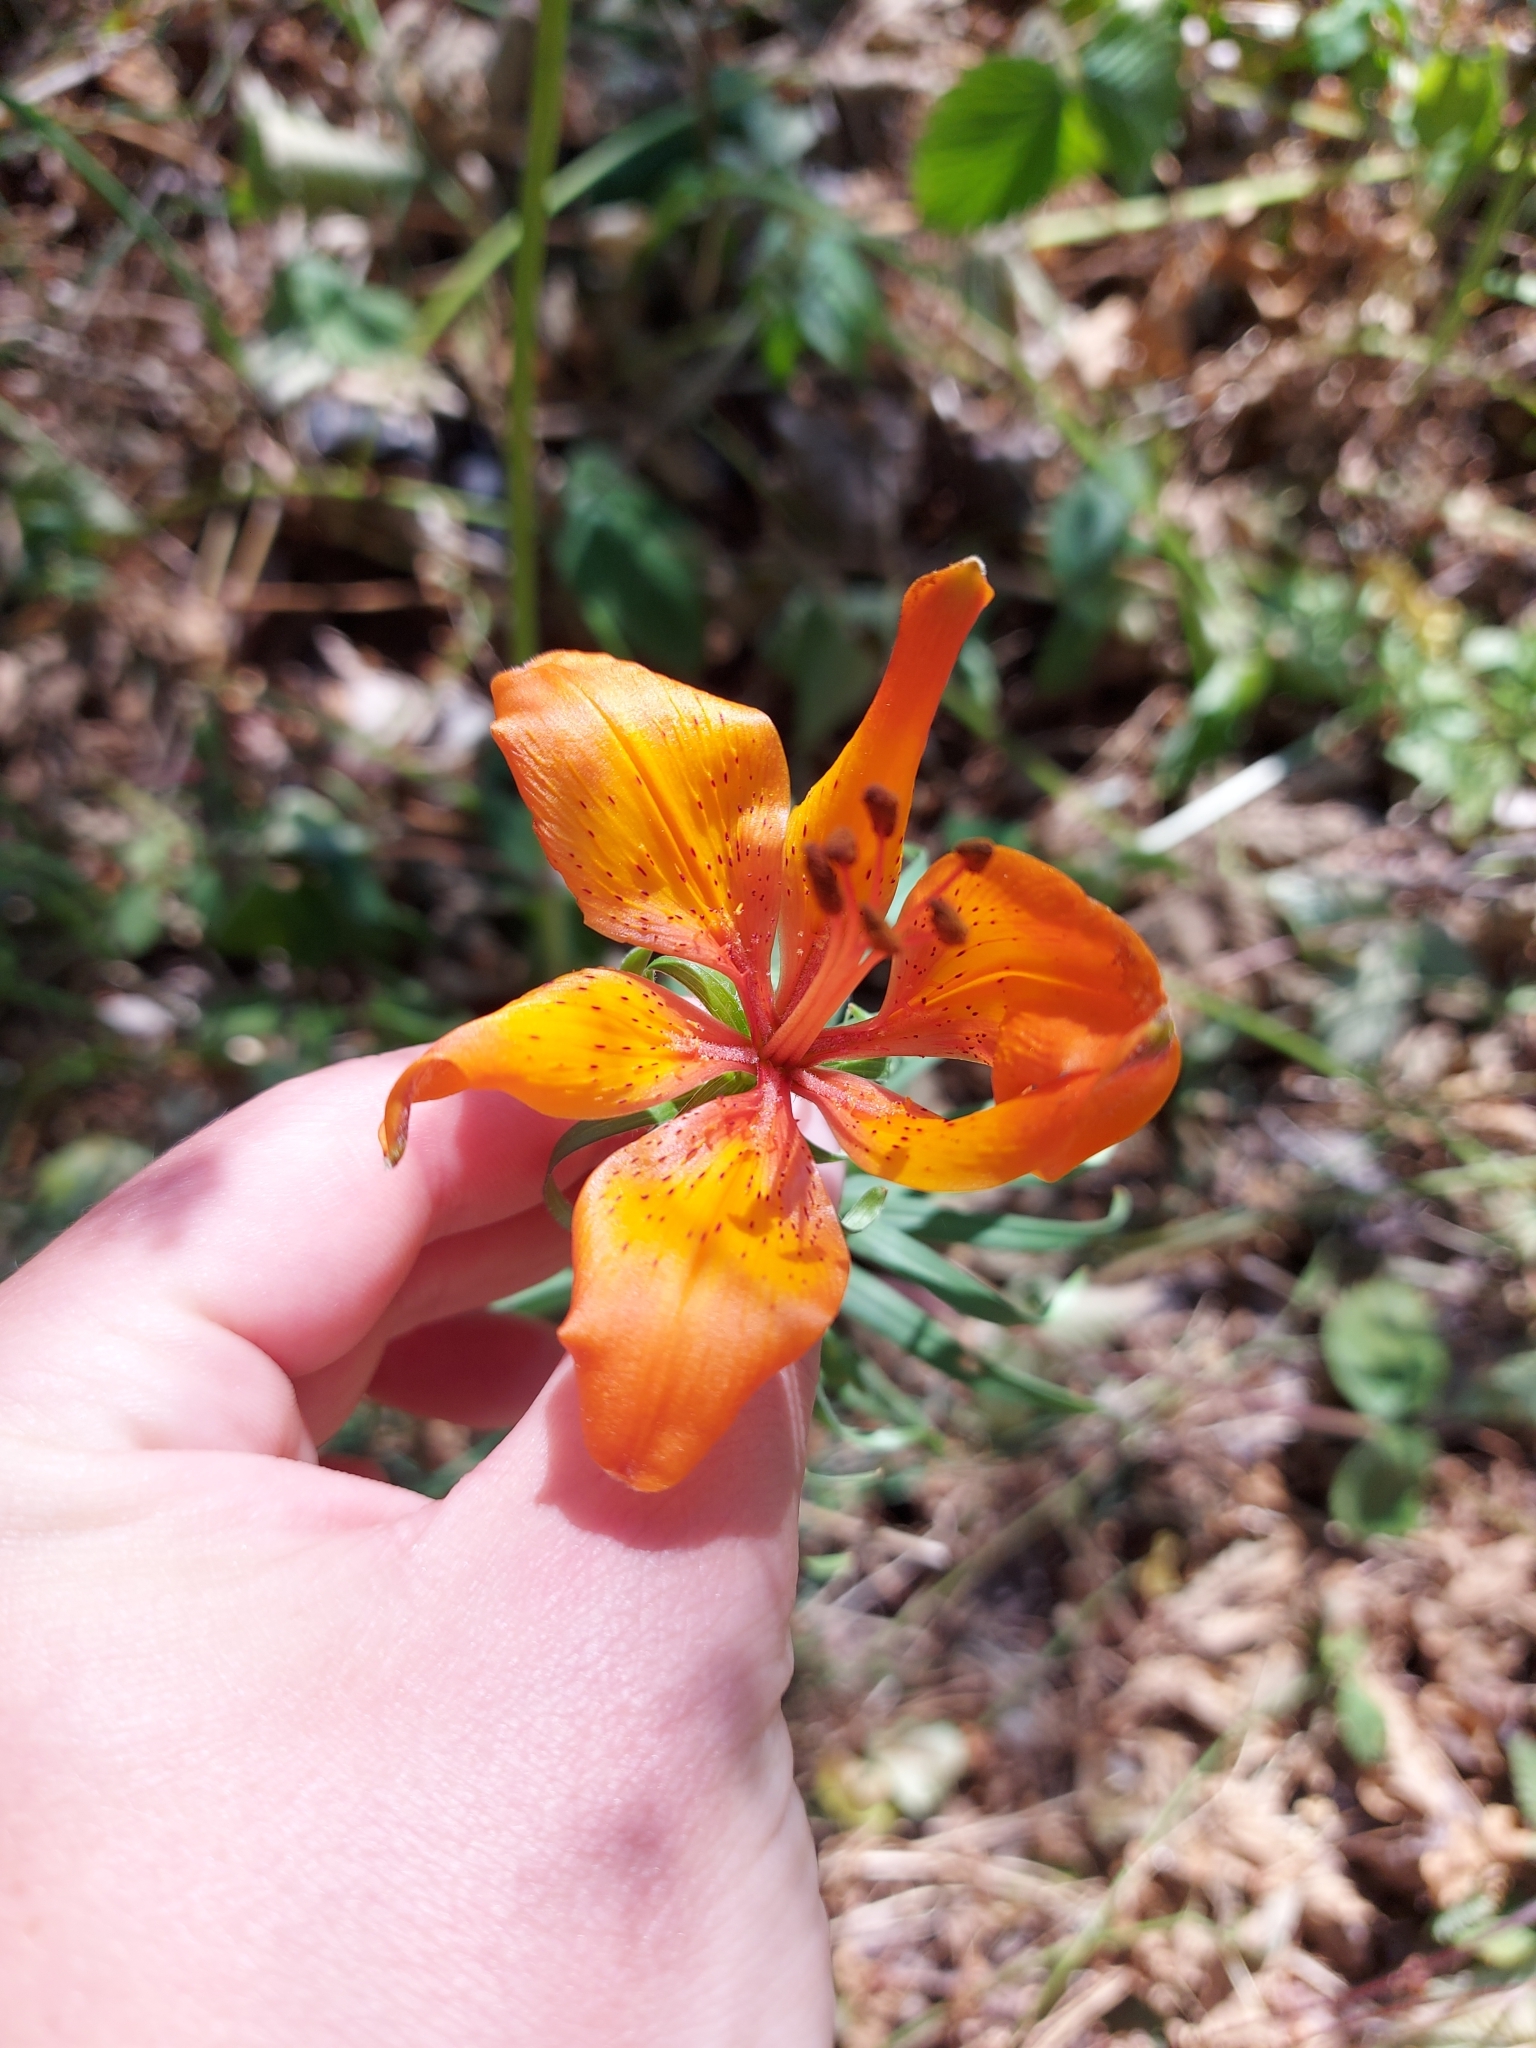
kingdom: Plantae
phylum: Tracheophyta
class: Liliopsida
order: Liliales
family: Liliaceae
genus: Lilium
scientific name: Lilium bulbiferum
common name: Orange lily
